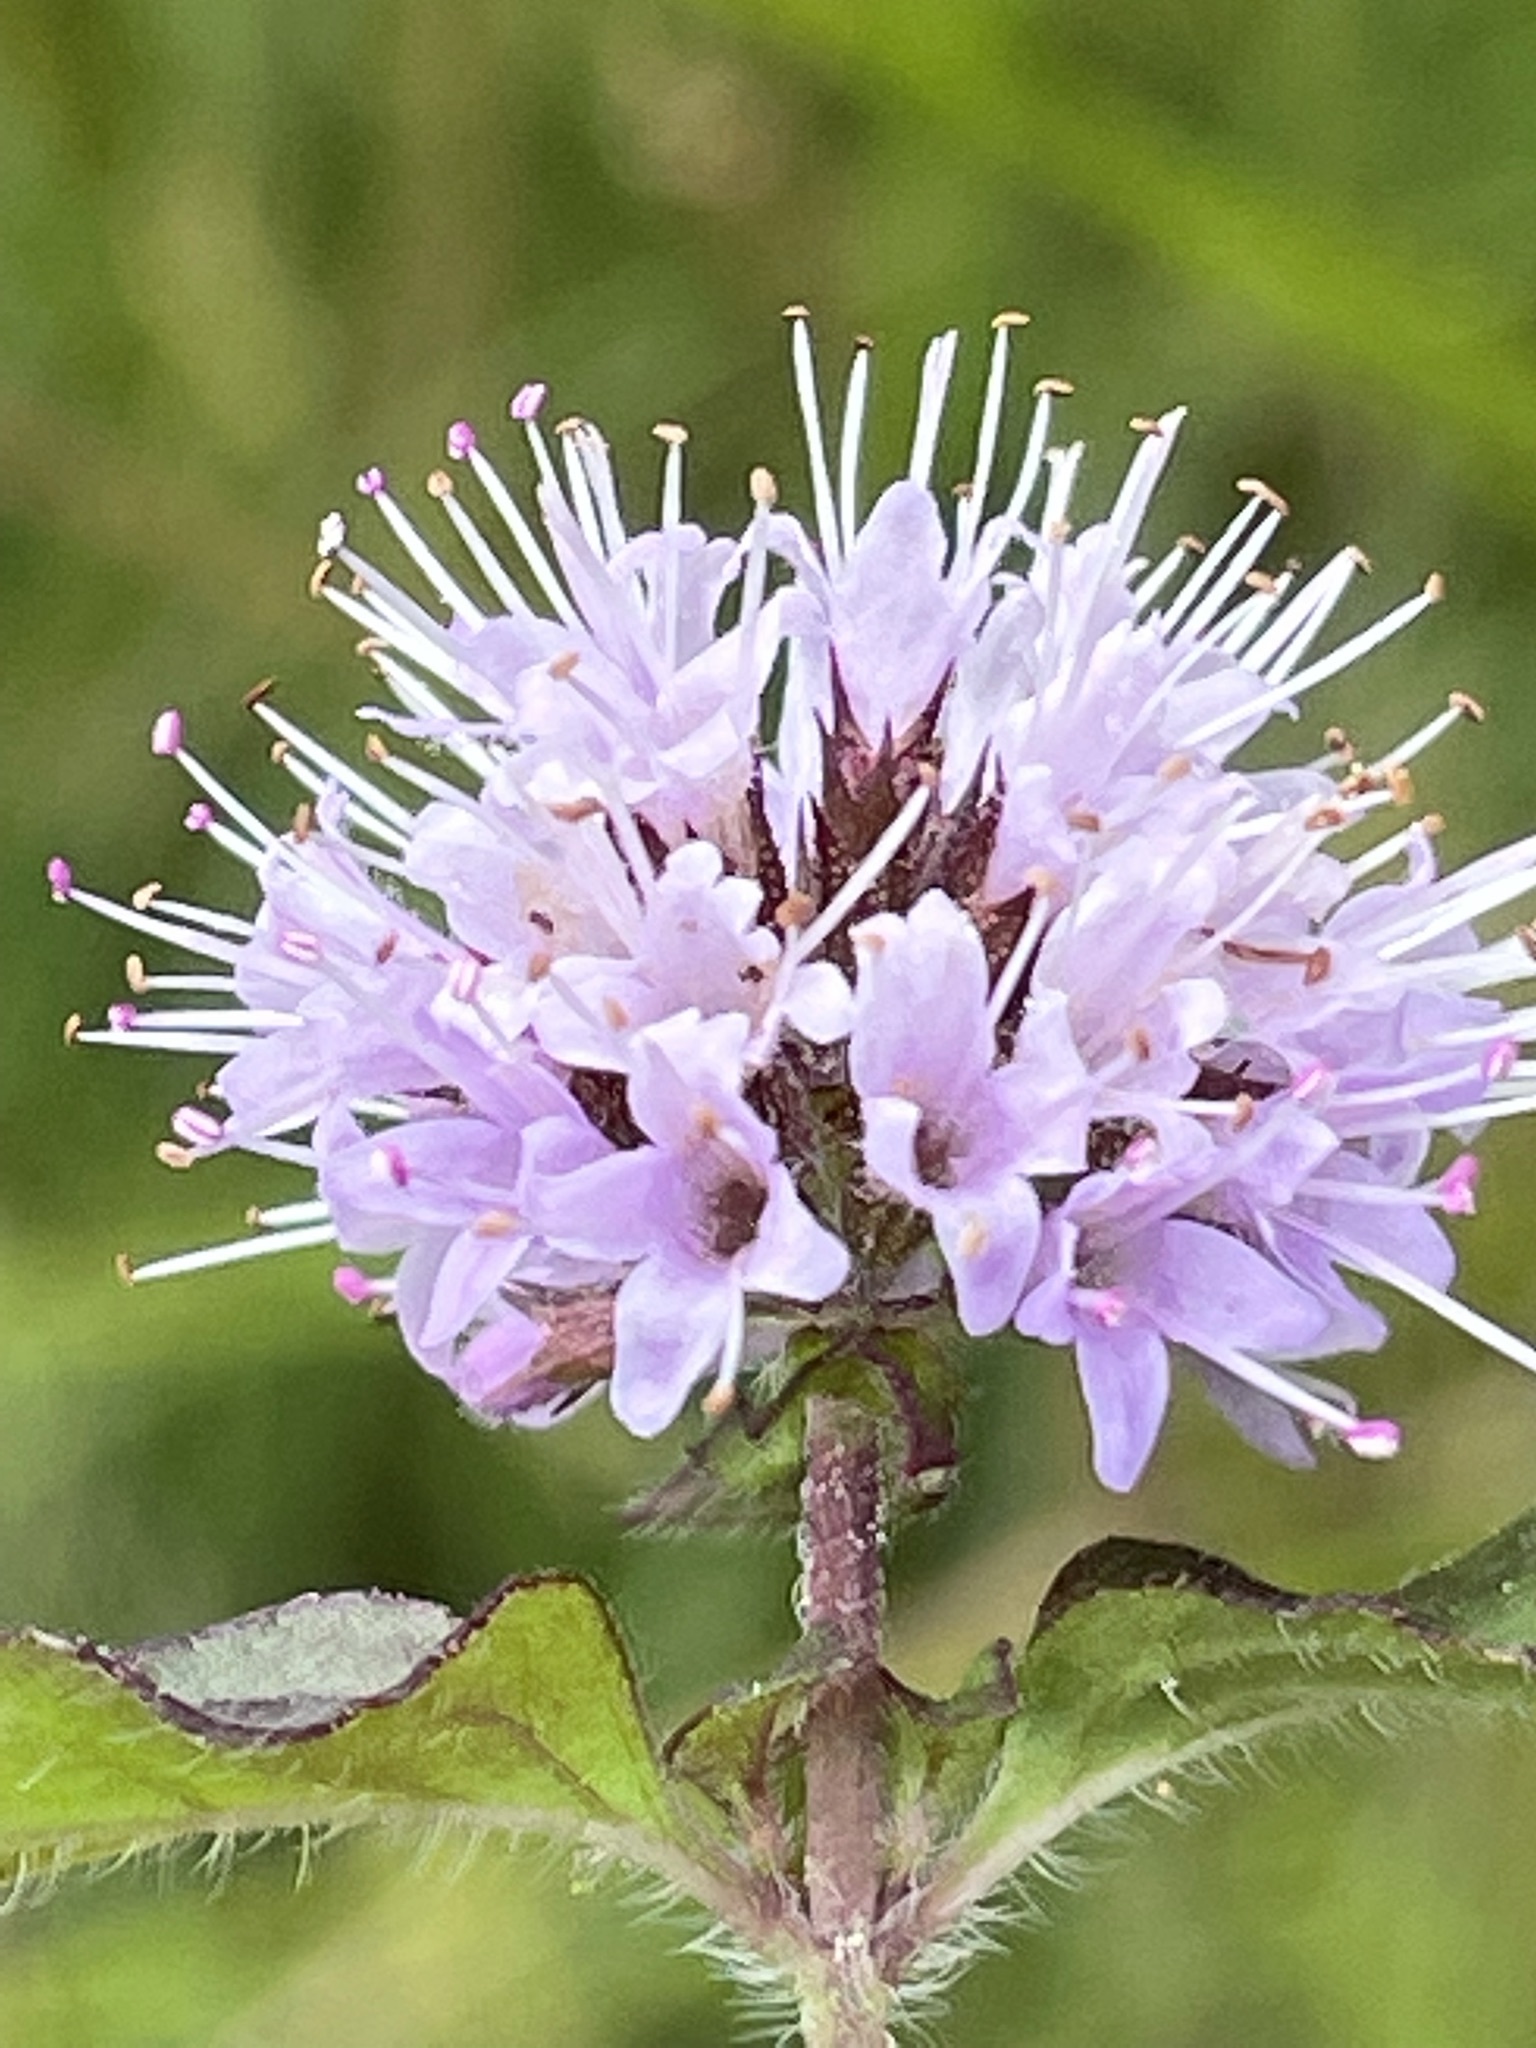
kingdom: Plantae
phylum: Tracheophyta
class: Magnoliopsida
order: Lamiales
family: Lamiaceae
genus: Mentha
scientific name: Mentha aquatica
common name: Water mint
